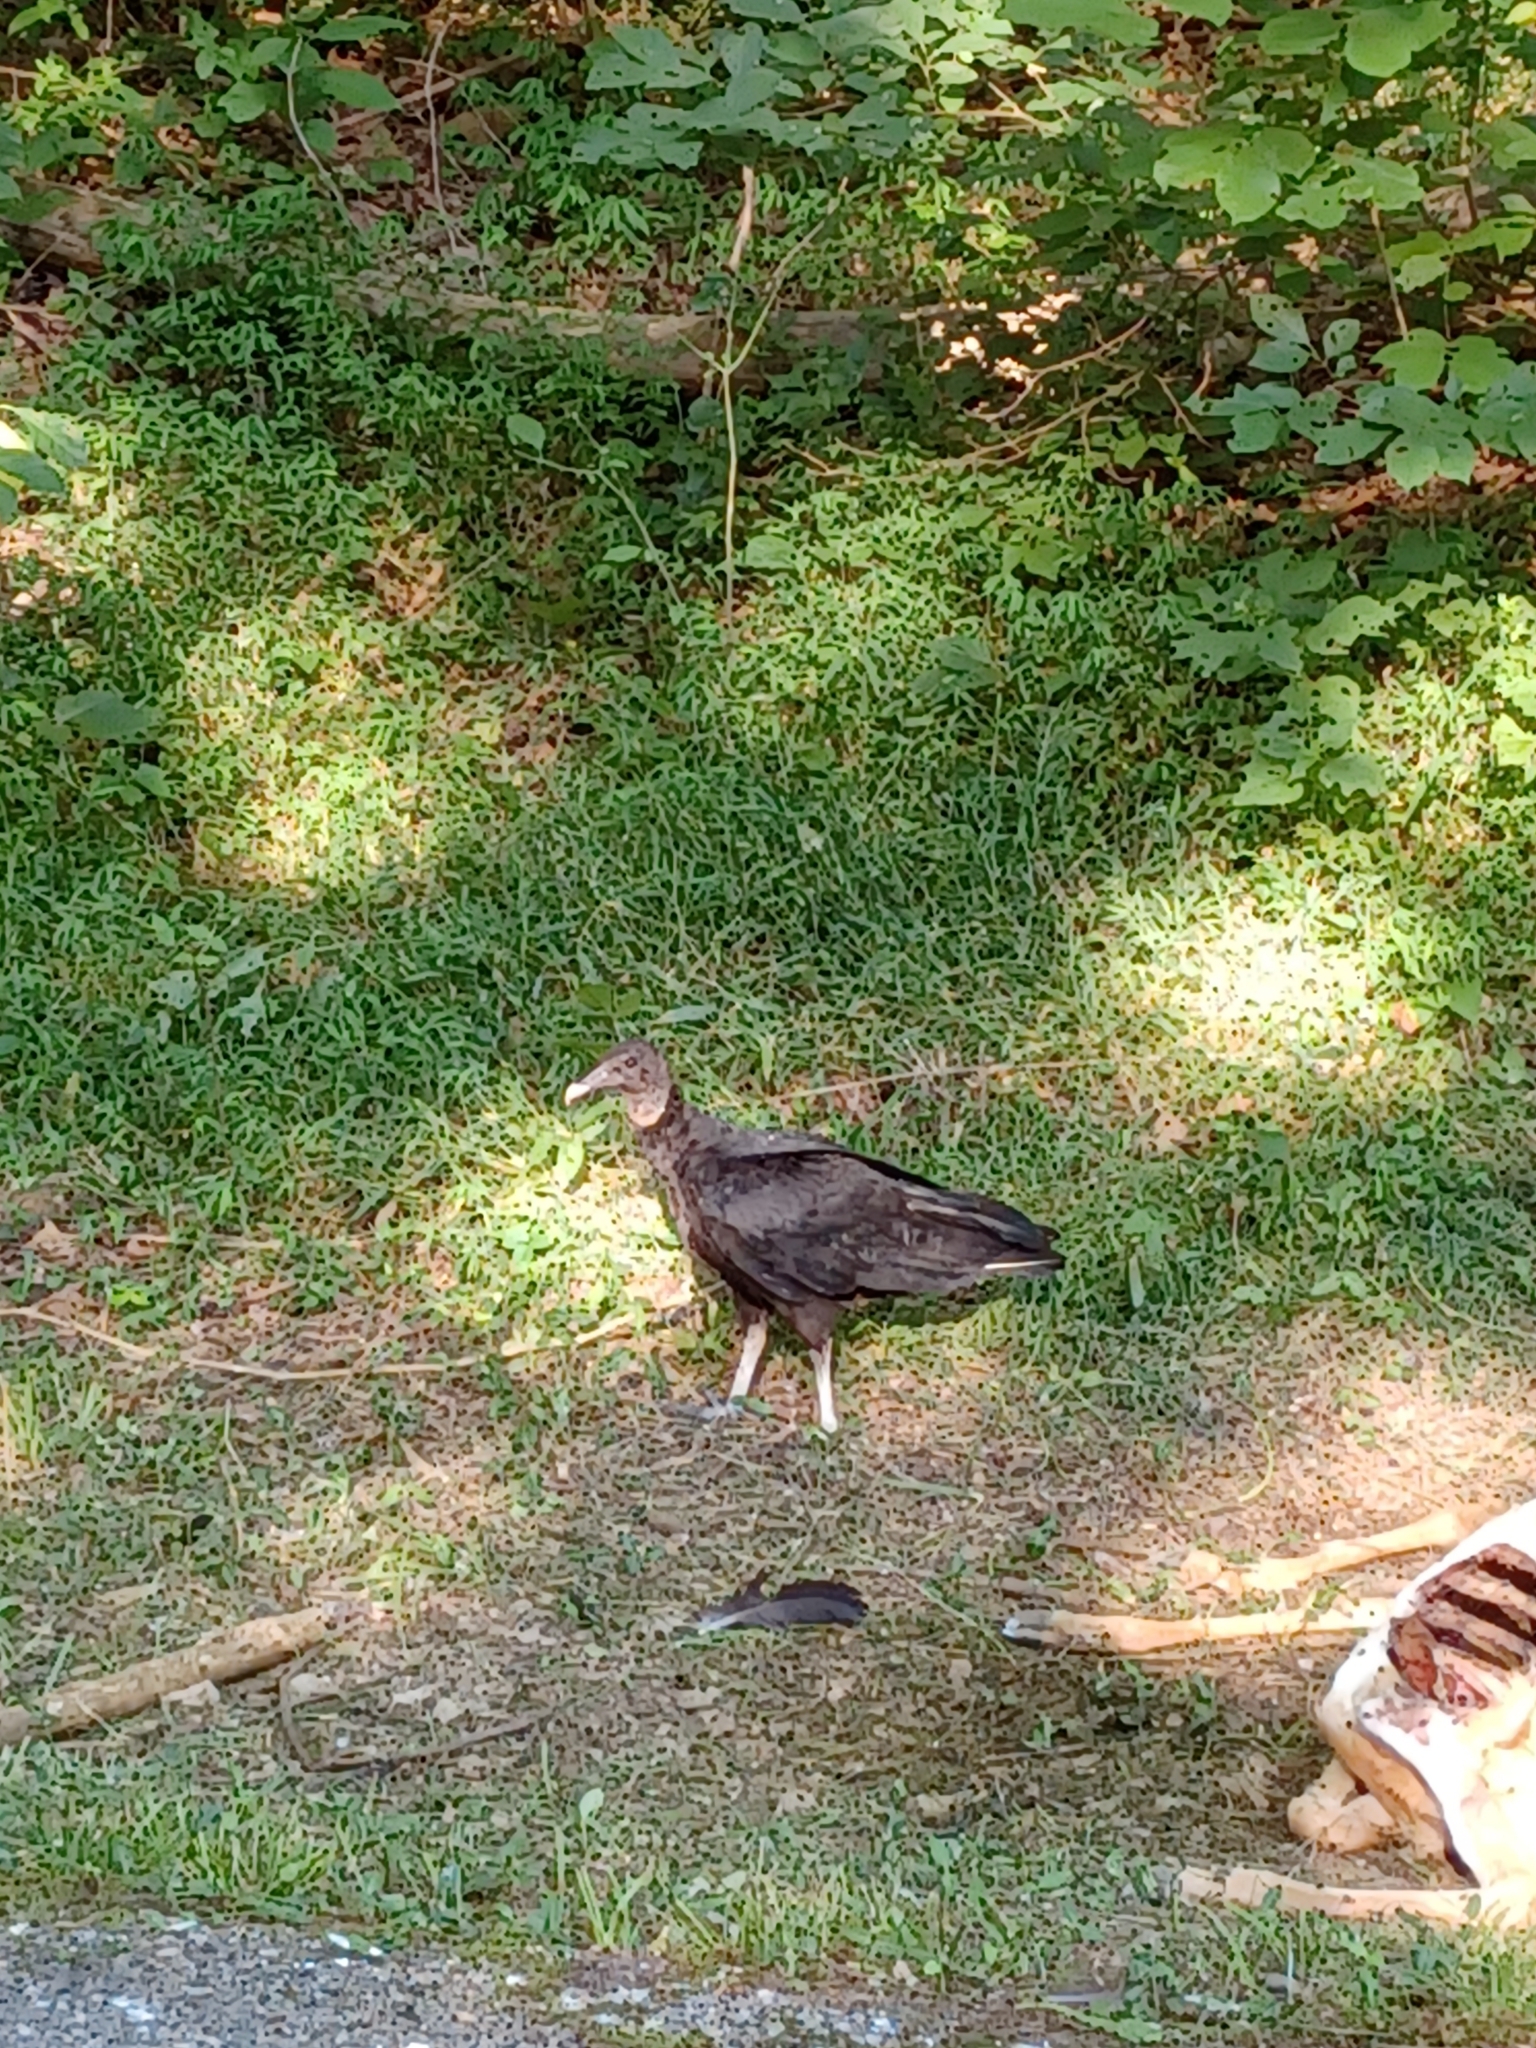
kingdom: Animalia
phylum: Chordata
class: Aves
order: Accipitriformes
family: Cathartidae
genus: Coragyps
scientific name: Coragyps atratus
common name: Black vulture
